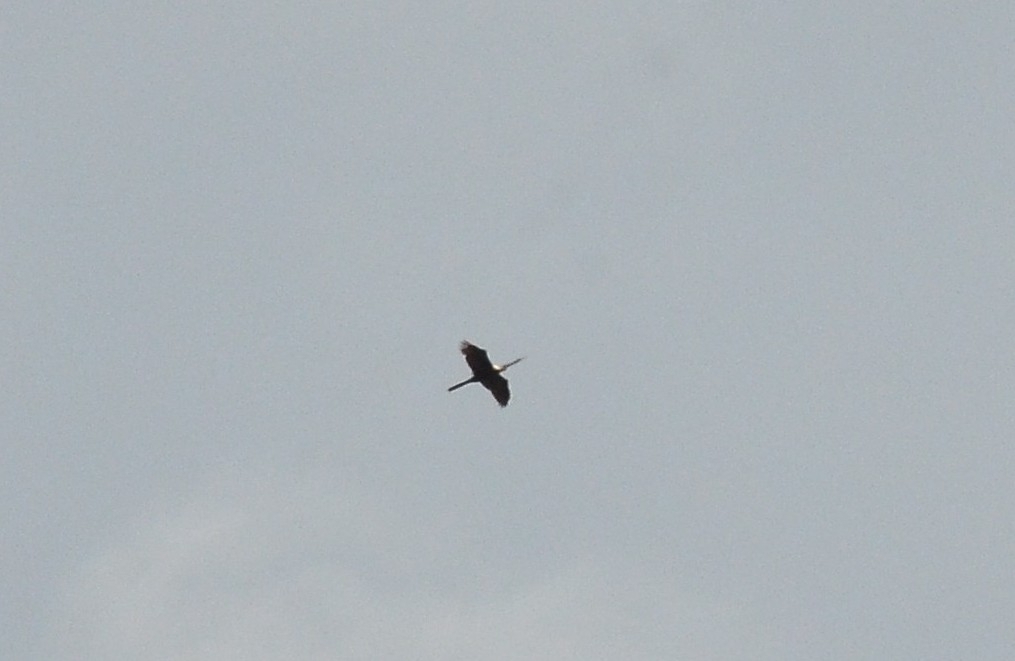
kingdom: Animalia
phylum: Chordata
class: Aves
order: Suliformes
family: Anhingidae
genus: Anhinga
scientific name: Anhinga melanogaster
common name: Oriental darter
